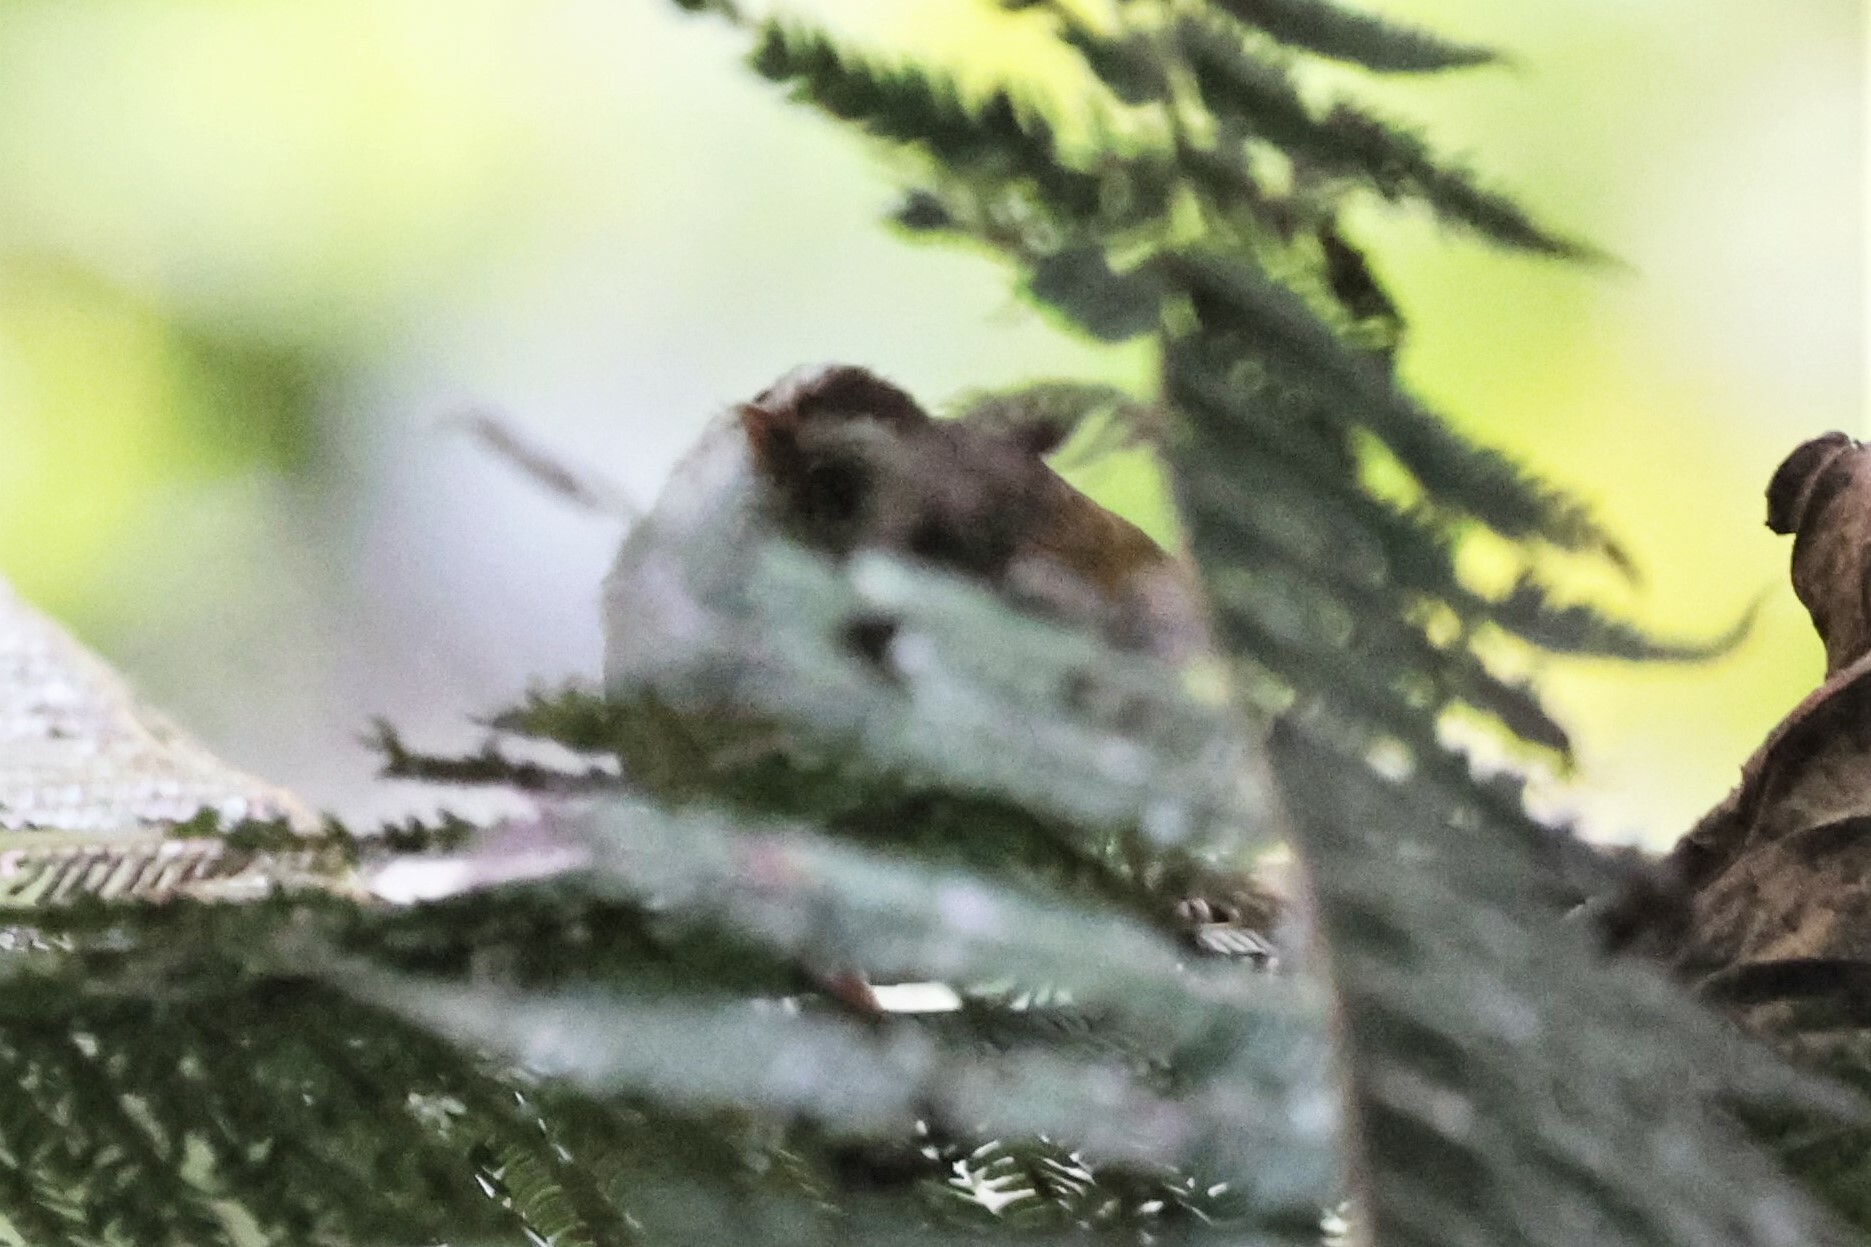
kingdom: Animalia
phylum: Chordata
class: Aves
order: Passeriformes
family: Macrosphenidae
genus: Sylvietta
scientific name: Sylvietta leucophrys
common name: White-browed crombec
